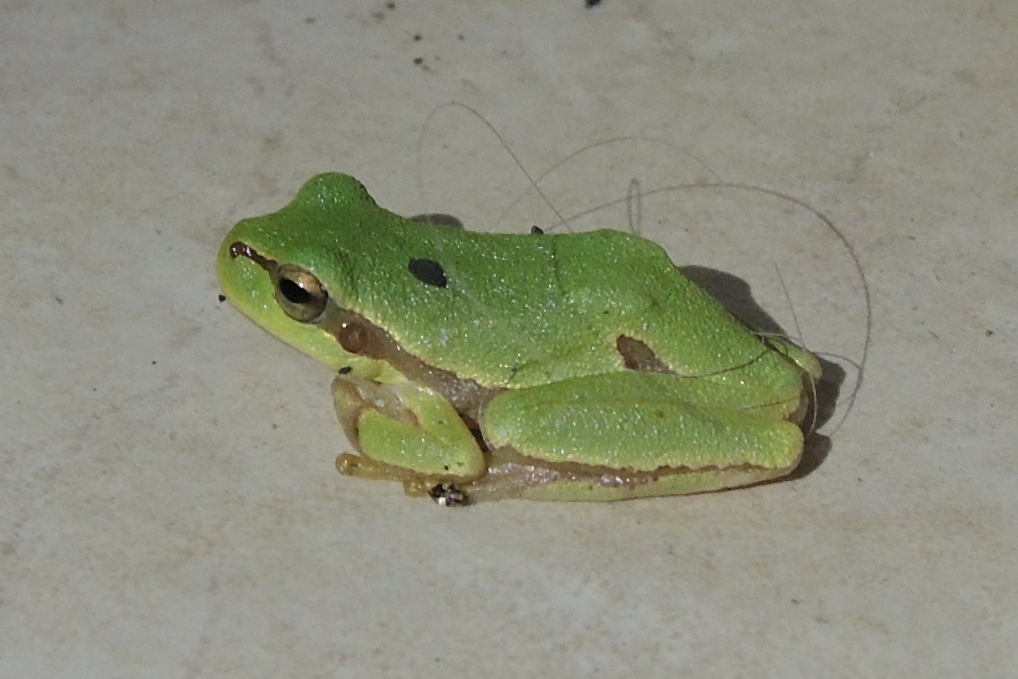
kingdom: Animalia
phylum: Chordata
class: Amphibia
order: Anura
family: Hylidae
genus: Hyla
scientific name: Hyla orientalis
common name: Caucasian treefrog
